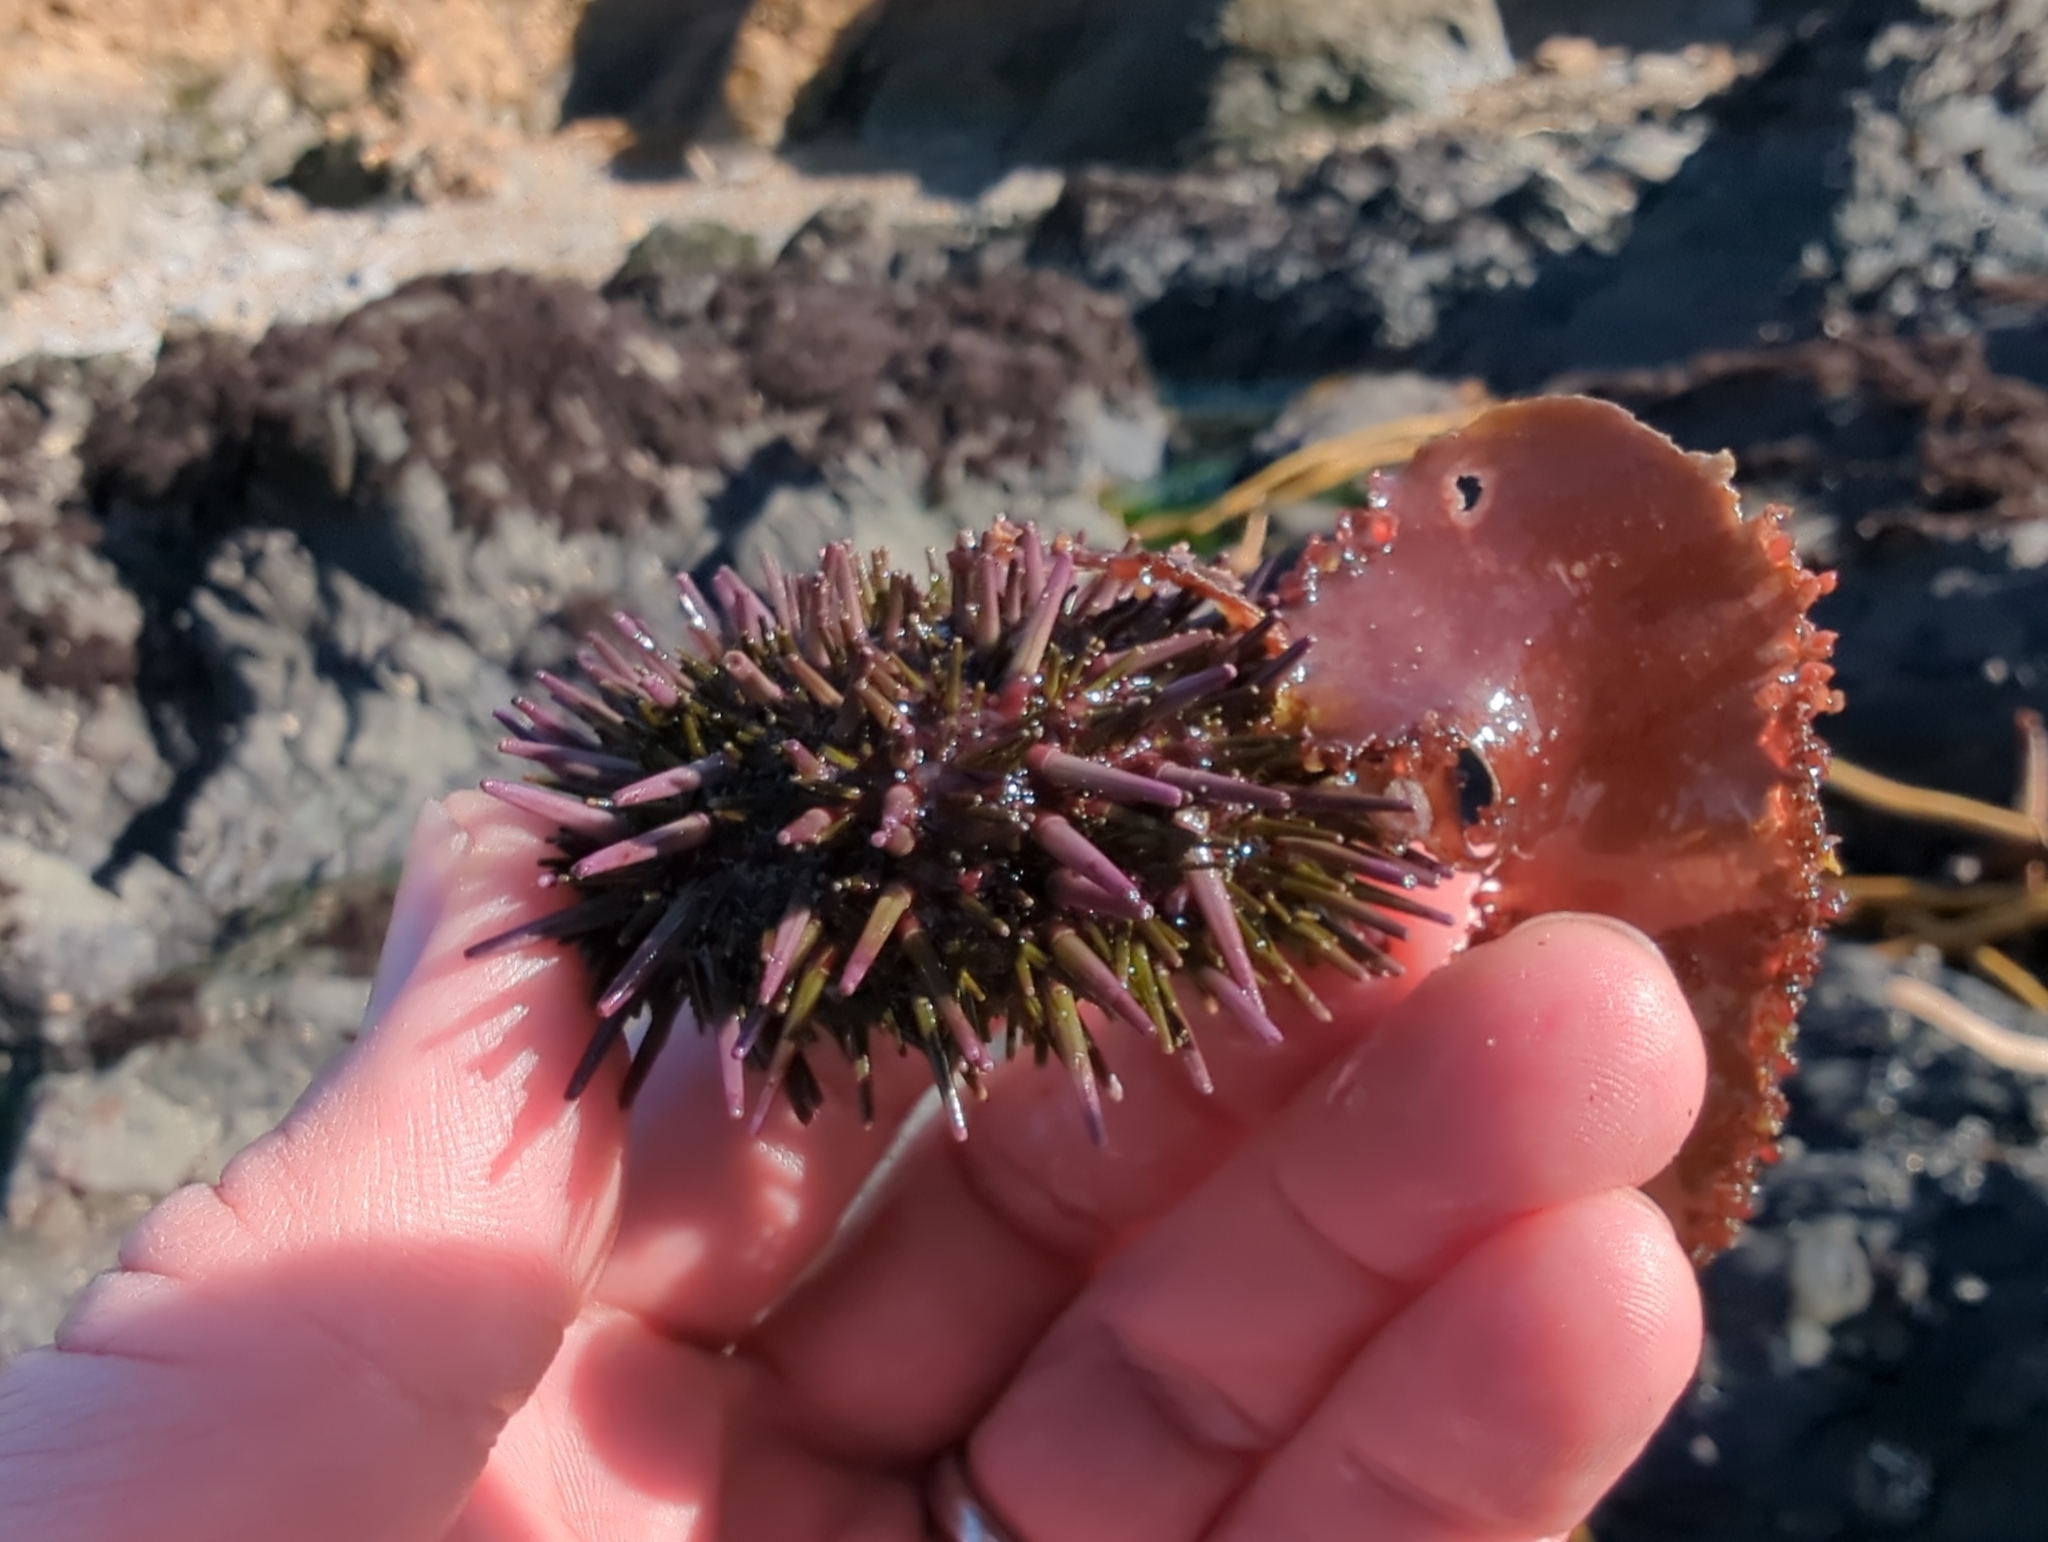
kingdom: Animalia
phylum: Echinodermata
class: Echinoidea
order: Camarodonta
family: Strongylocentrotidae
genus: Strongylocentrotus
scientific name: Strongylocentrotus purpuratus
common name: Purple sea urchin
